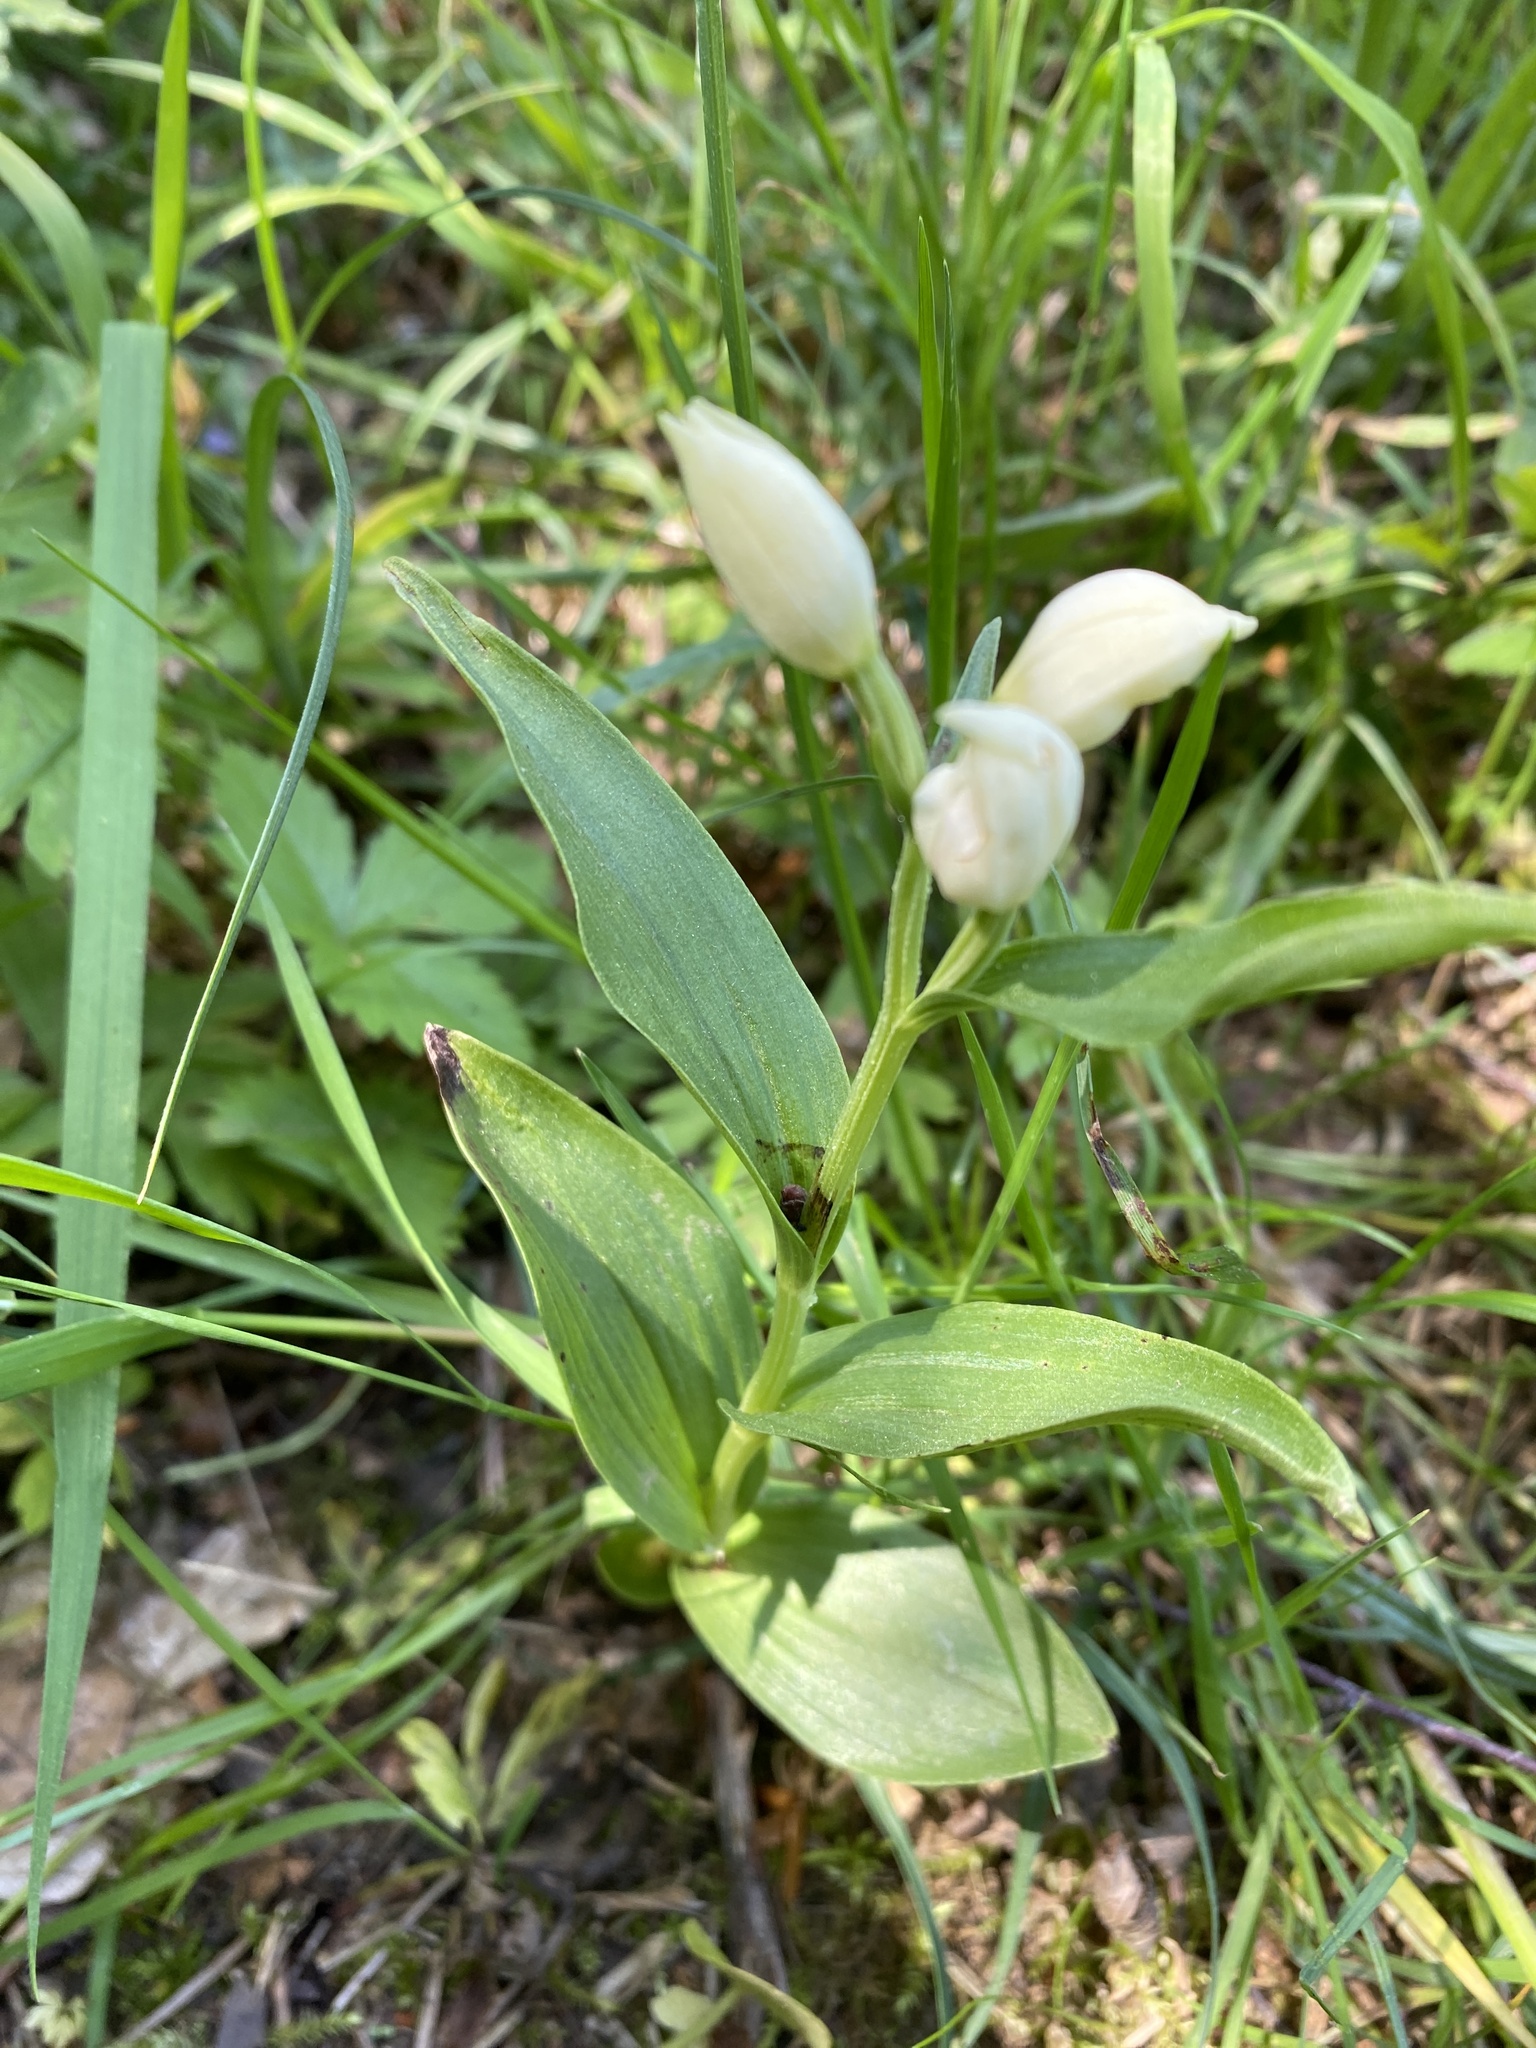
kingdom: Plantae
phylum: Tracheophyta
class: Liliopsida
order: Asparagales
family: Orchidaceae
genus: Cephalanthera
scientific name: Cephalanthera damasonium
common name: White helleborine
